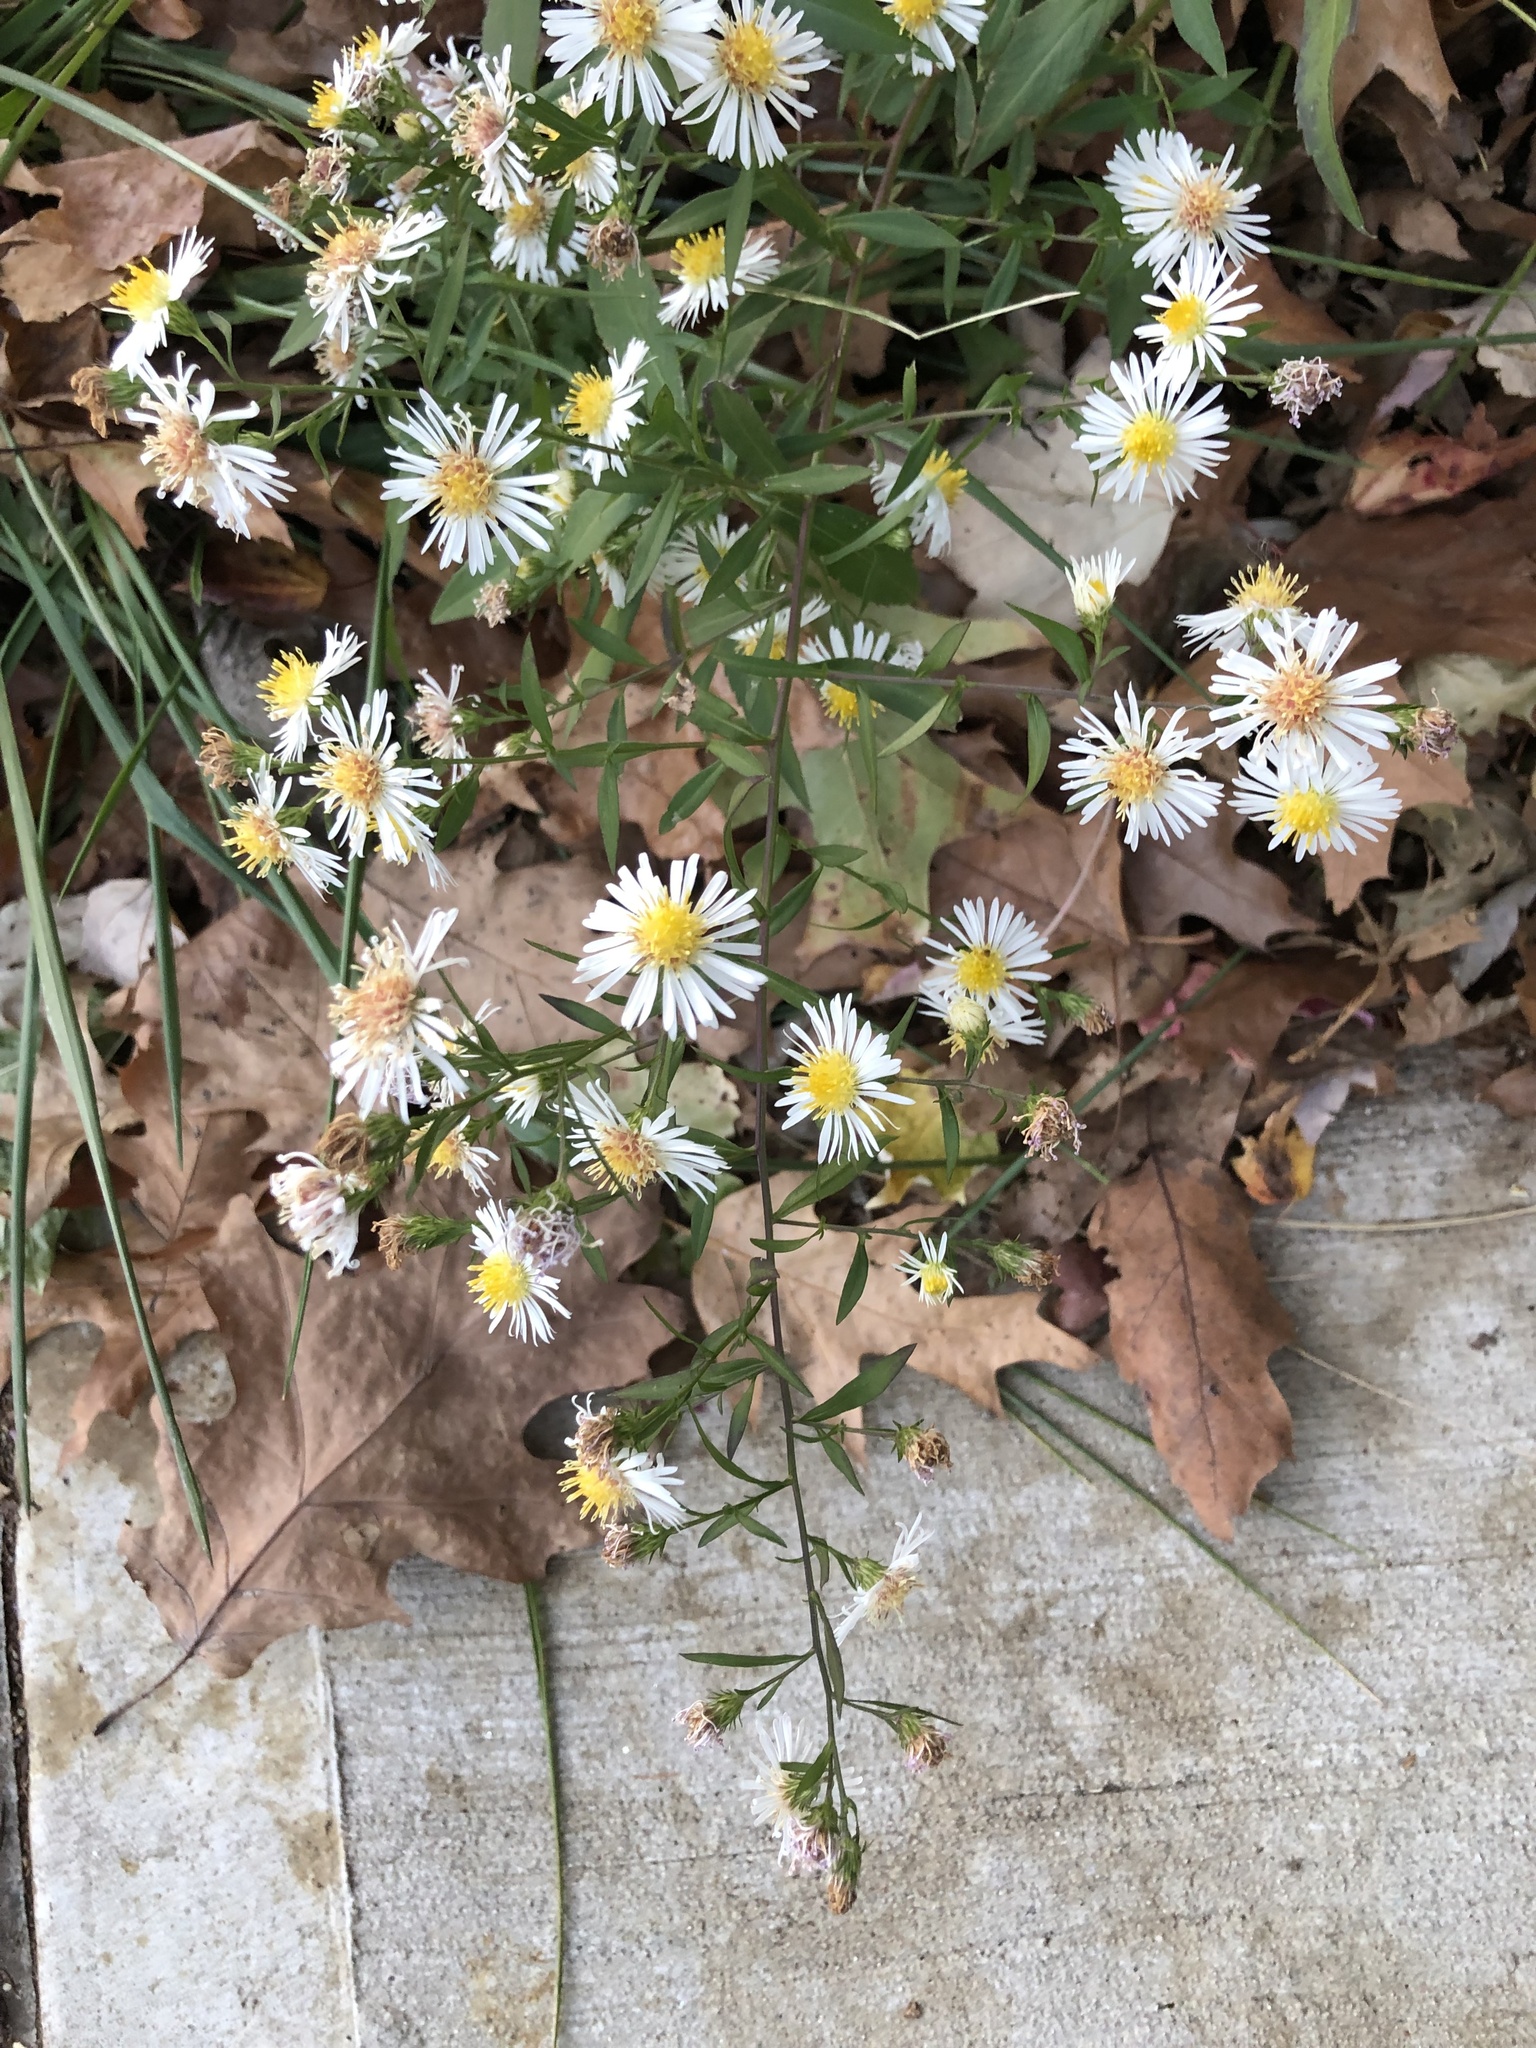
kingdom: Plantae
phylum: Tracheophyta
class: Magnoliopsida
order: Asterales
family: Asteraceae
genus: Symphyotrichum
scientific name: Symphyotrichum lanceolatum
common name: Panicled aster
